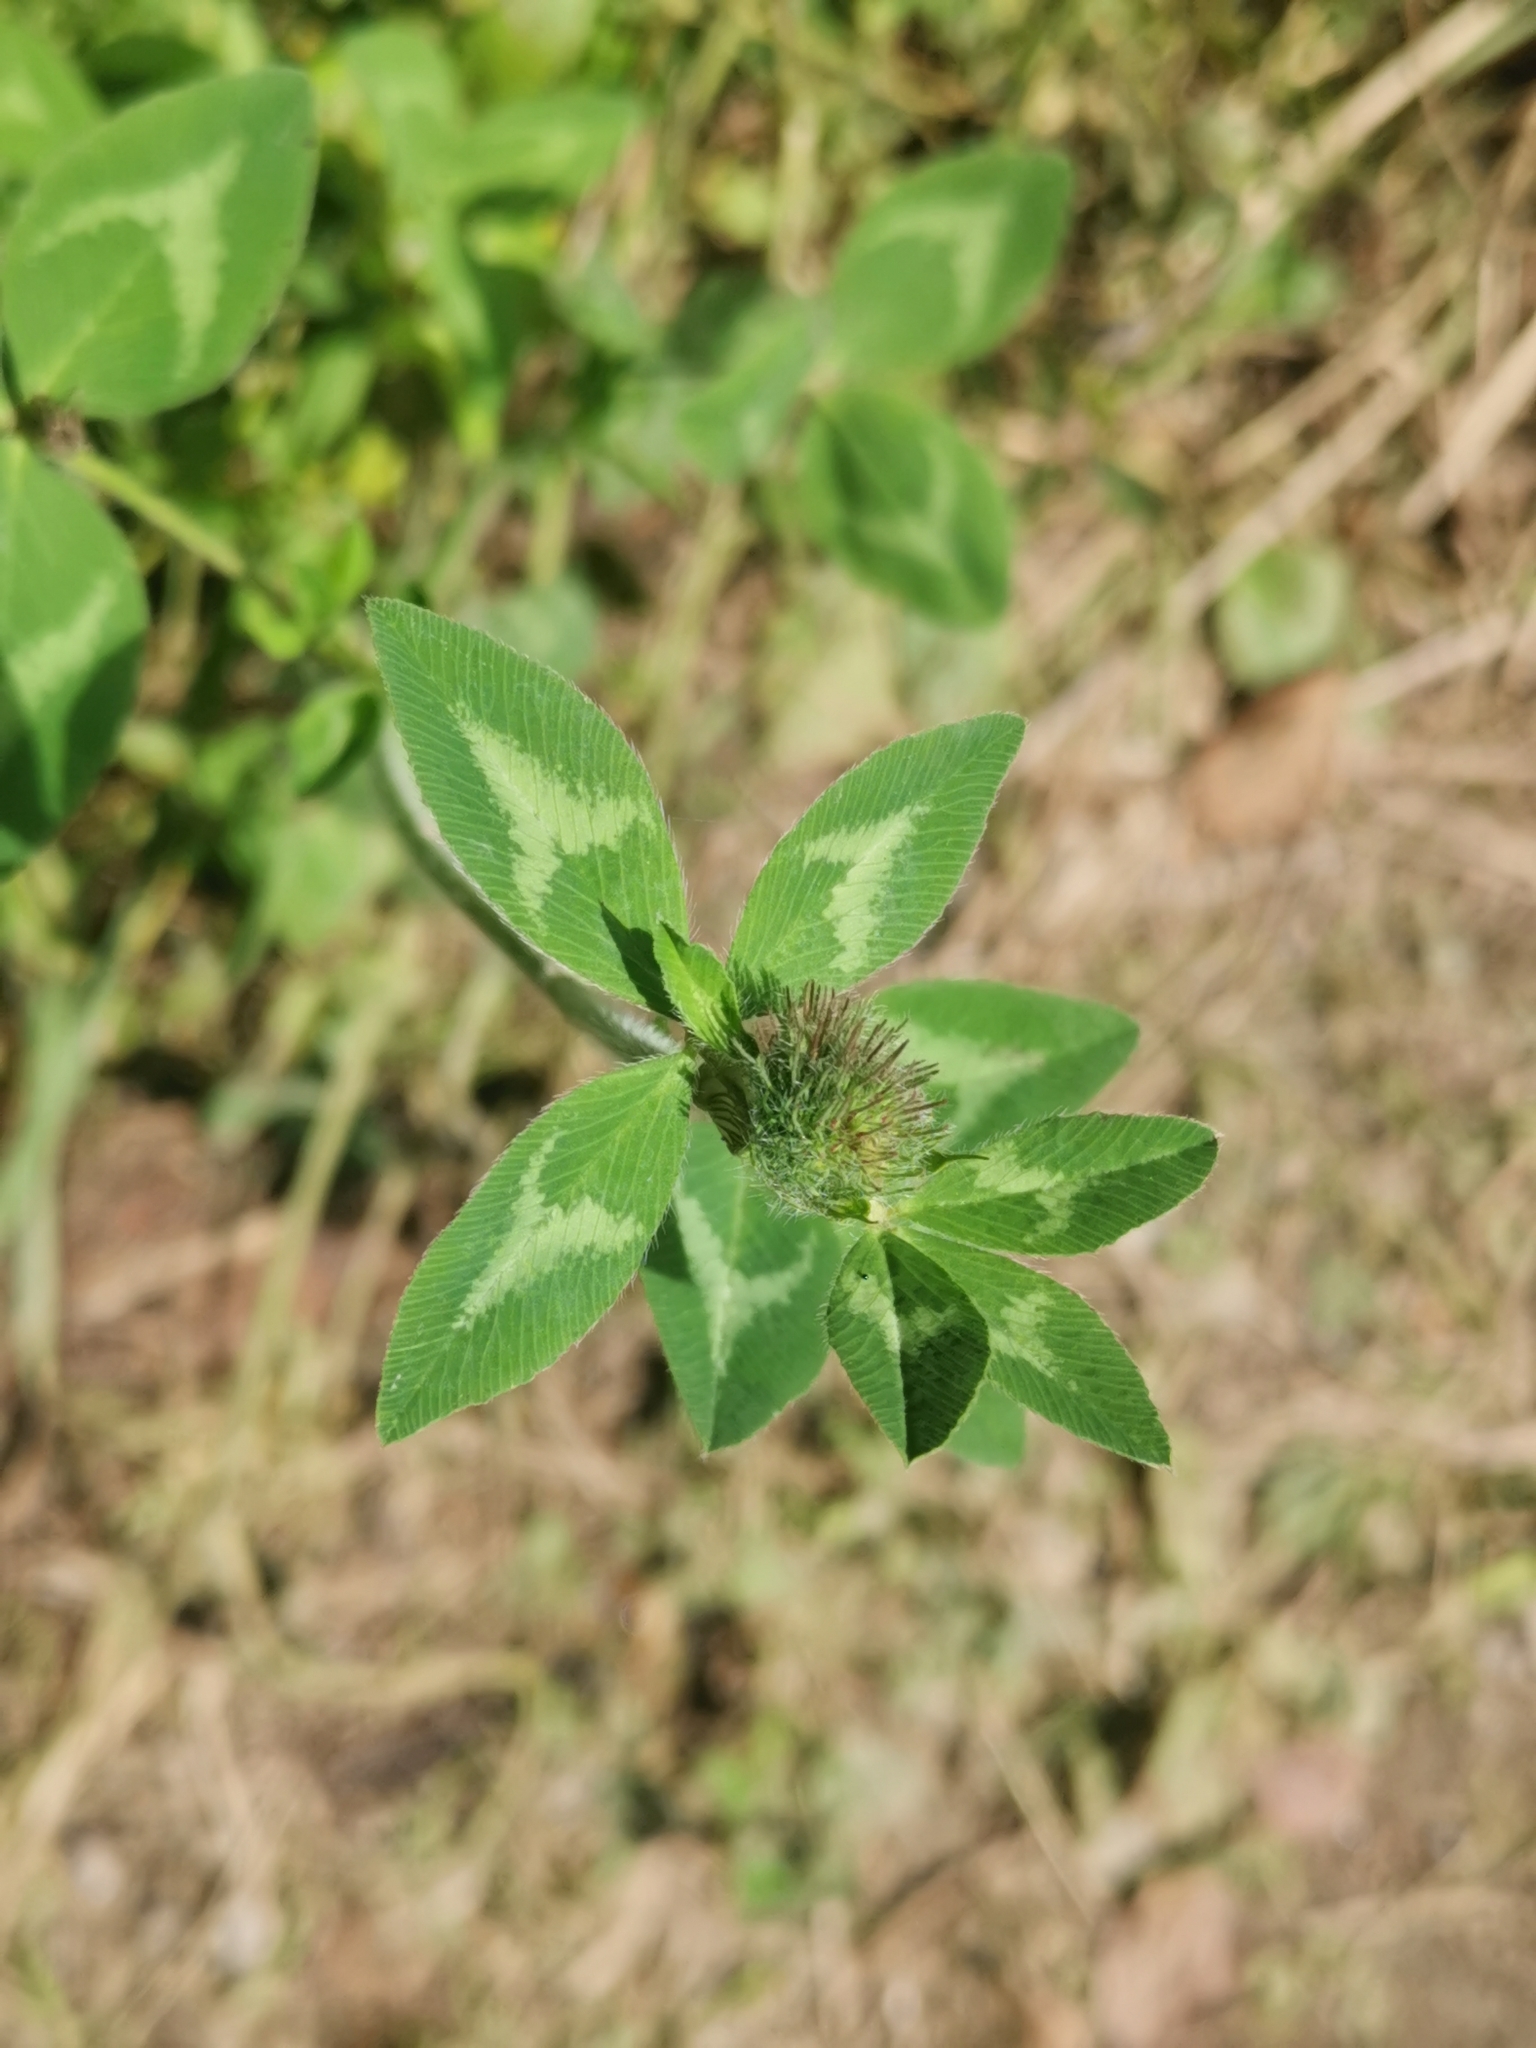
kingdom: Plantae
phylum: Tracheophyta
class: Magnoliopsida
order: Fabales
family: Fabaceae
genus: Trifolium
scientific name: Trifolium pratense
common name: Red clover
